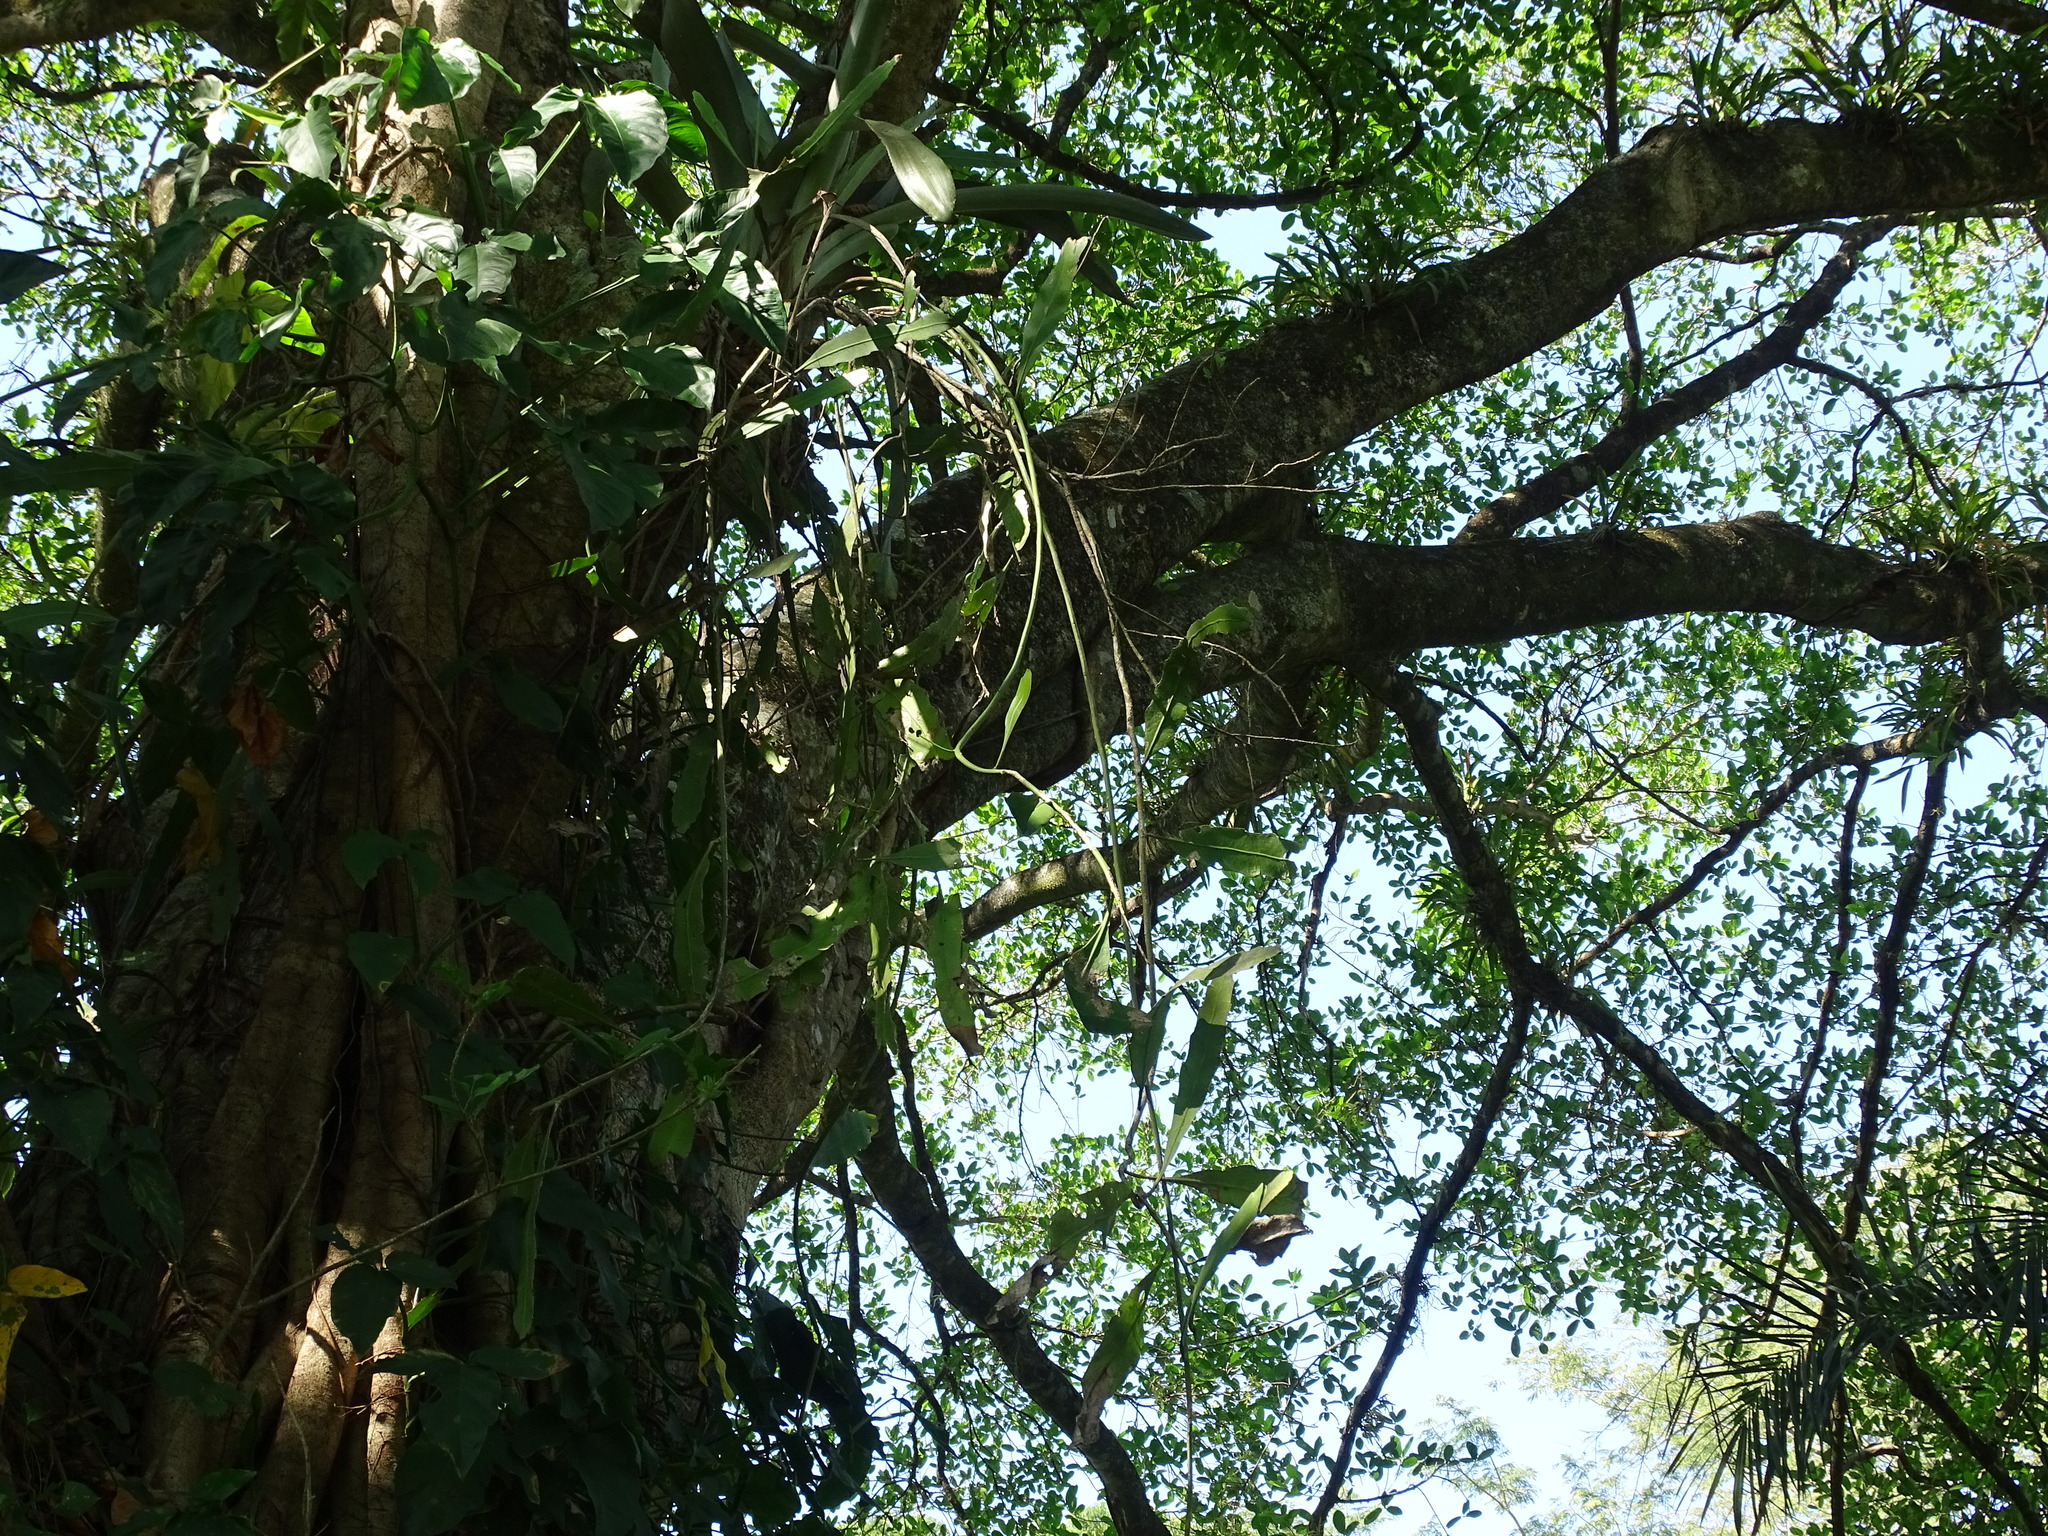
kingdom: Plantae
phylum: Tracheophyta
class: Magnoliopsida
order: Caryophyllales
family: Cactaceae
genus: Epiphyllum
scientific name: Epiphyllum oxypetalum
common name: Dutchman's pipe cactus
